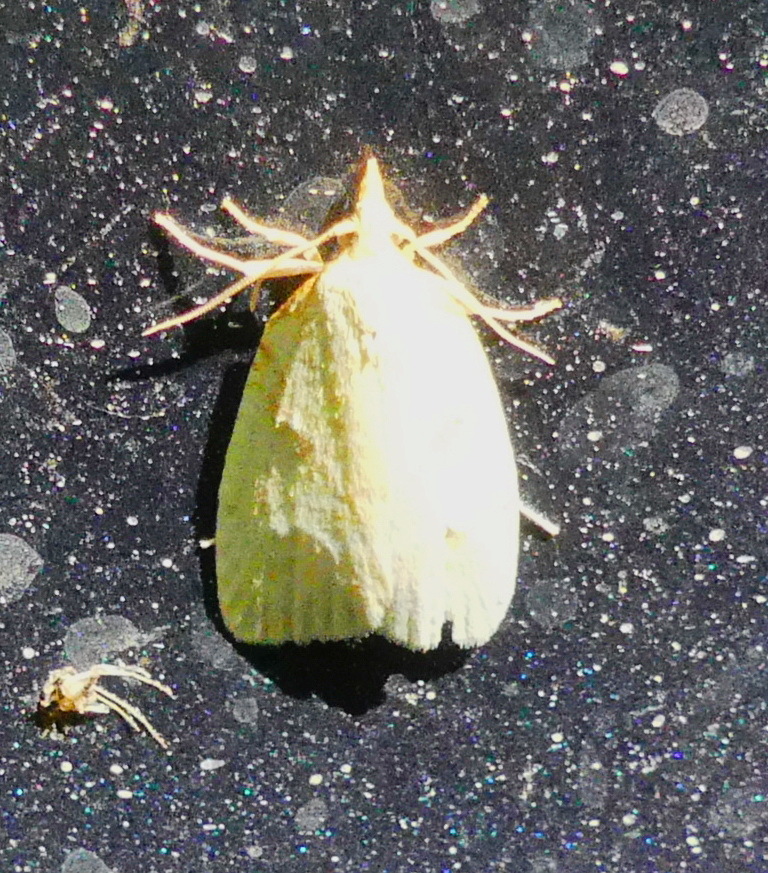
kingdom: Animalia
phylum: Arthropoda
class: Insecta
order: Lepidoptera
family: Tortricidae
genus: Cenopis
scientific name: Cenopis pettitana
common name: Maple-basswood leafroller moth
